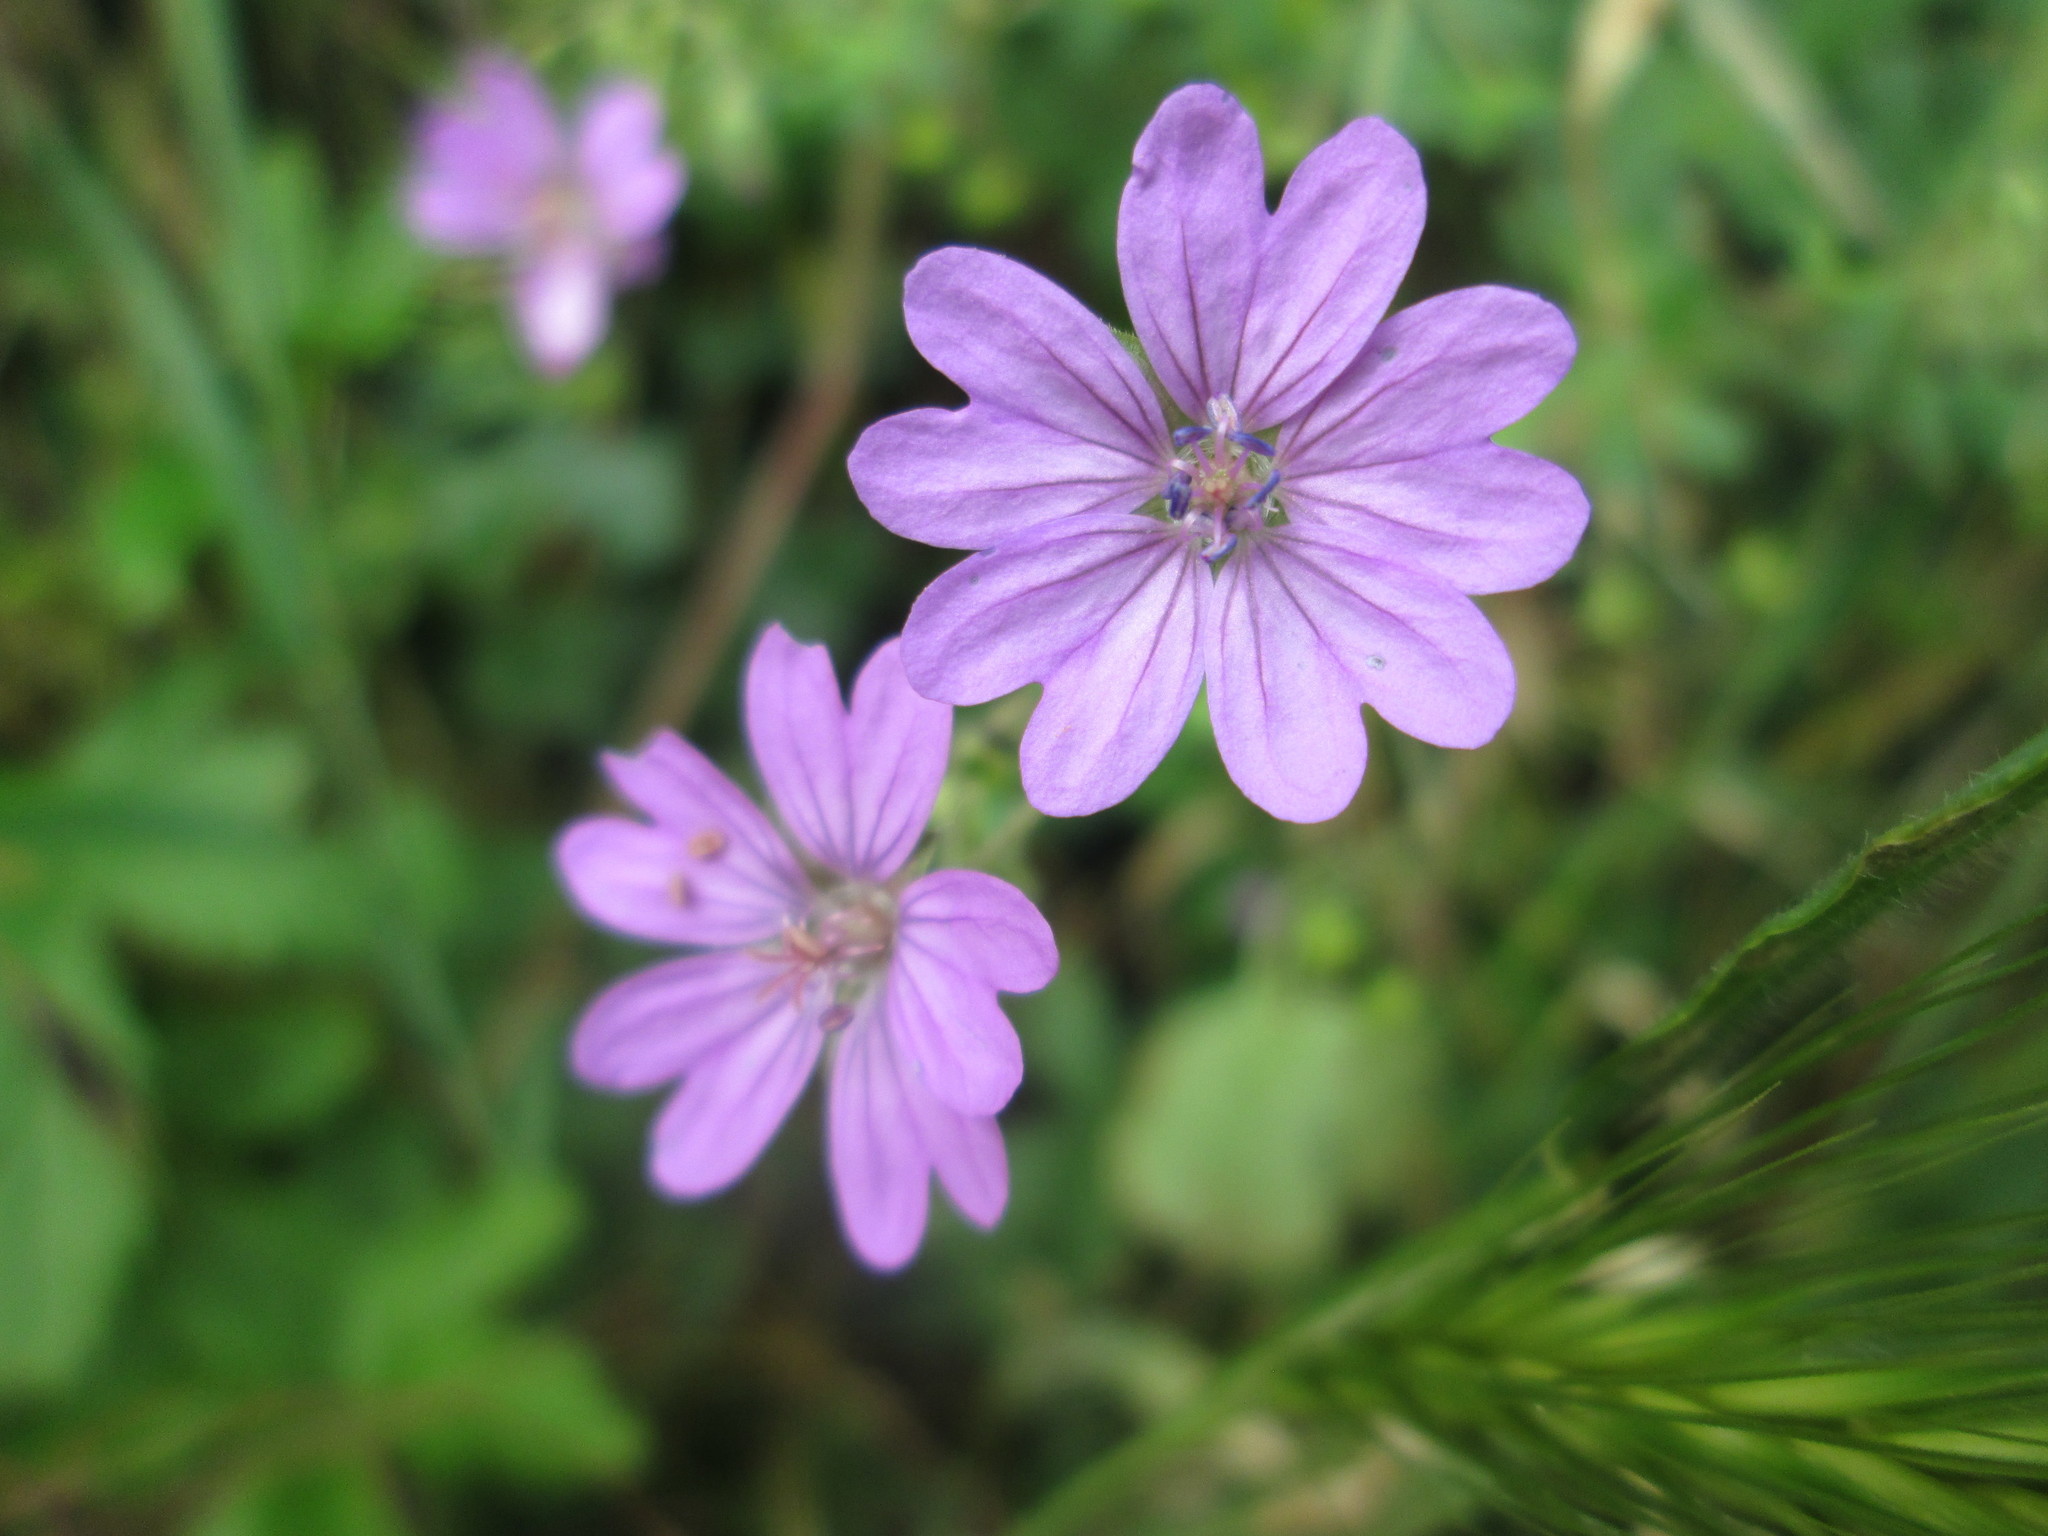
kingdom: Plantae
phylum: Tracheophyta
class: Magnoliopsida
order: Geraniales
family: Geraniaceae
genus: Geranium
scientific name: Geranium pyrenaicum
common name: Hedgerow crane's-bill
